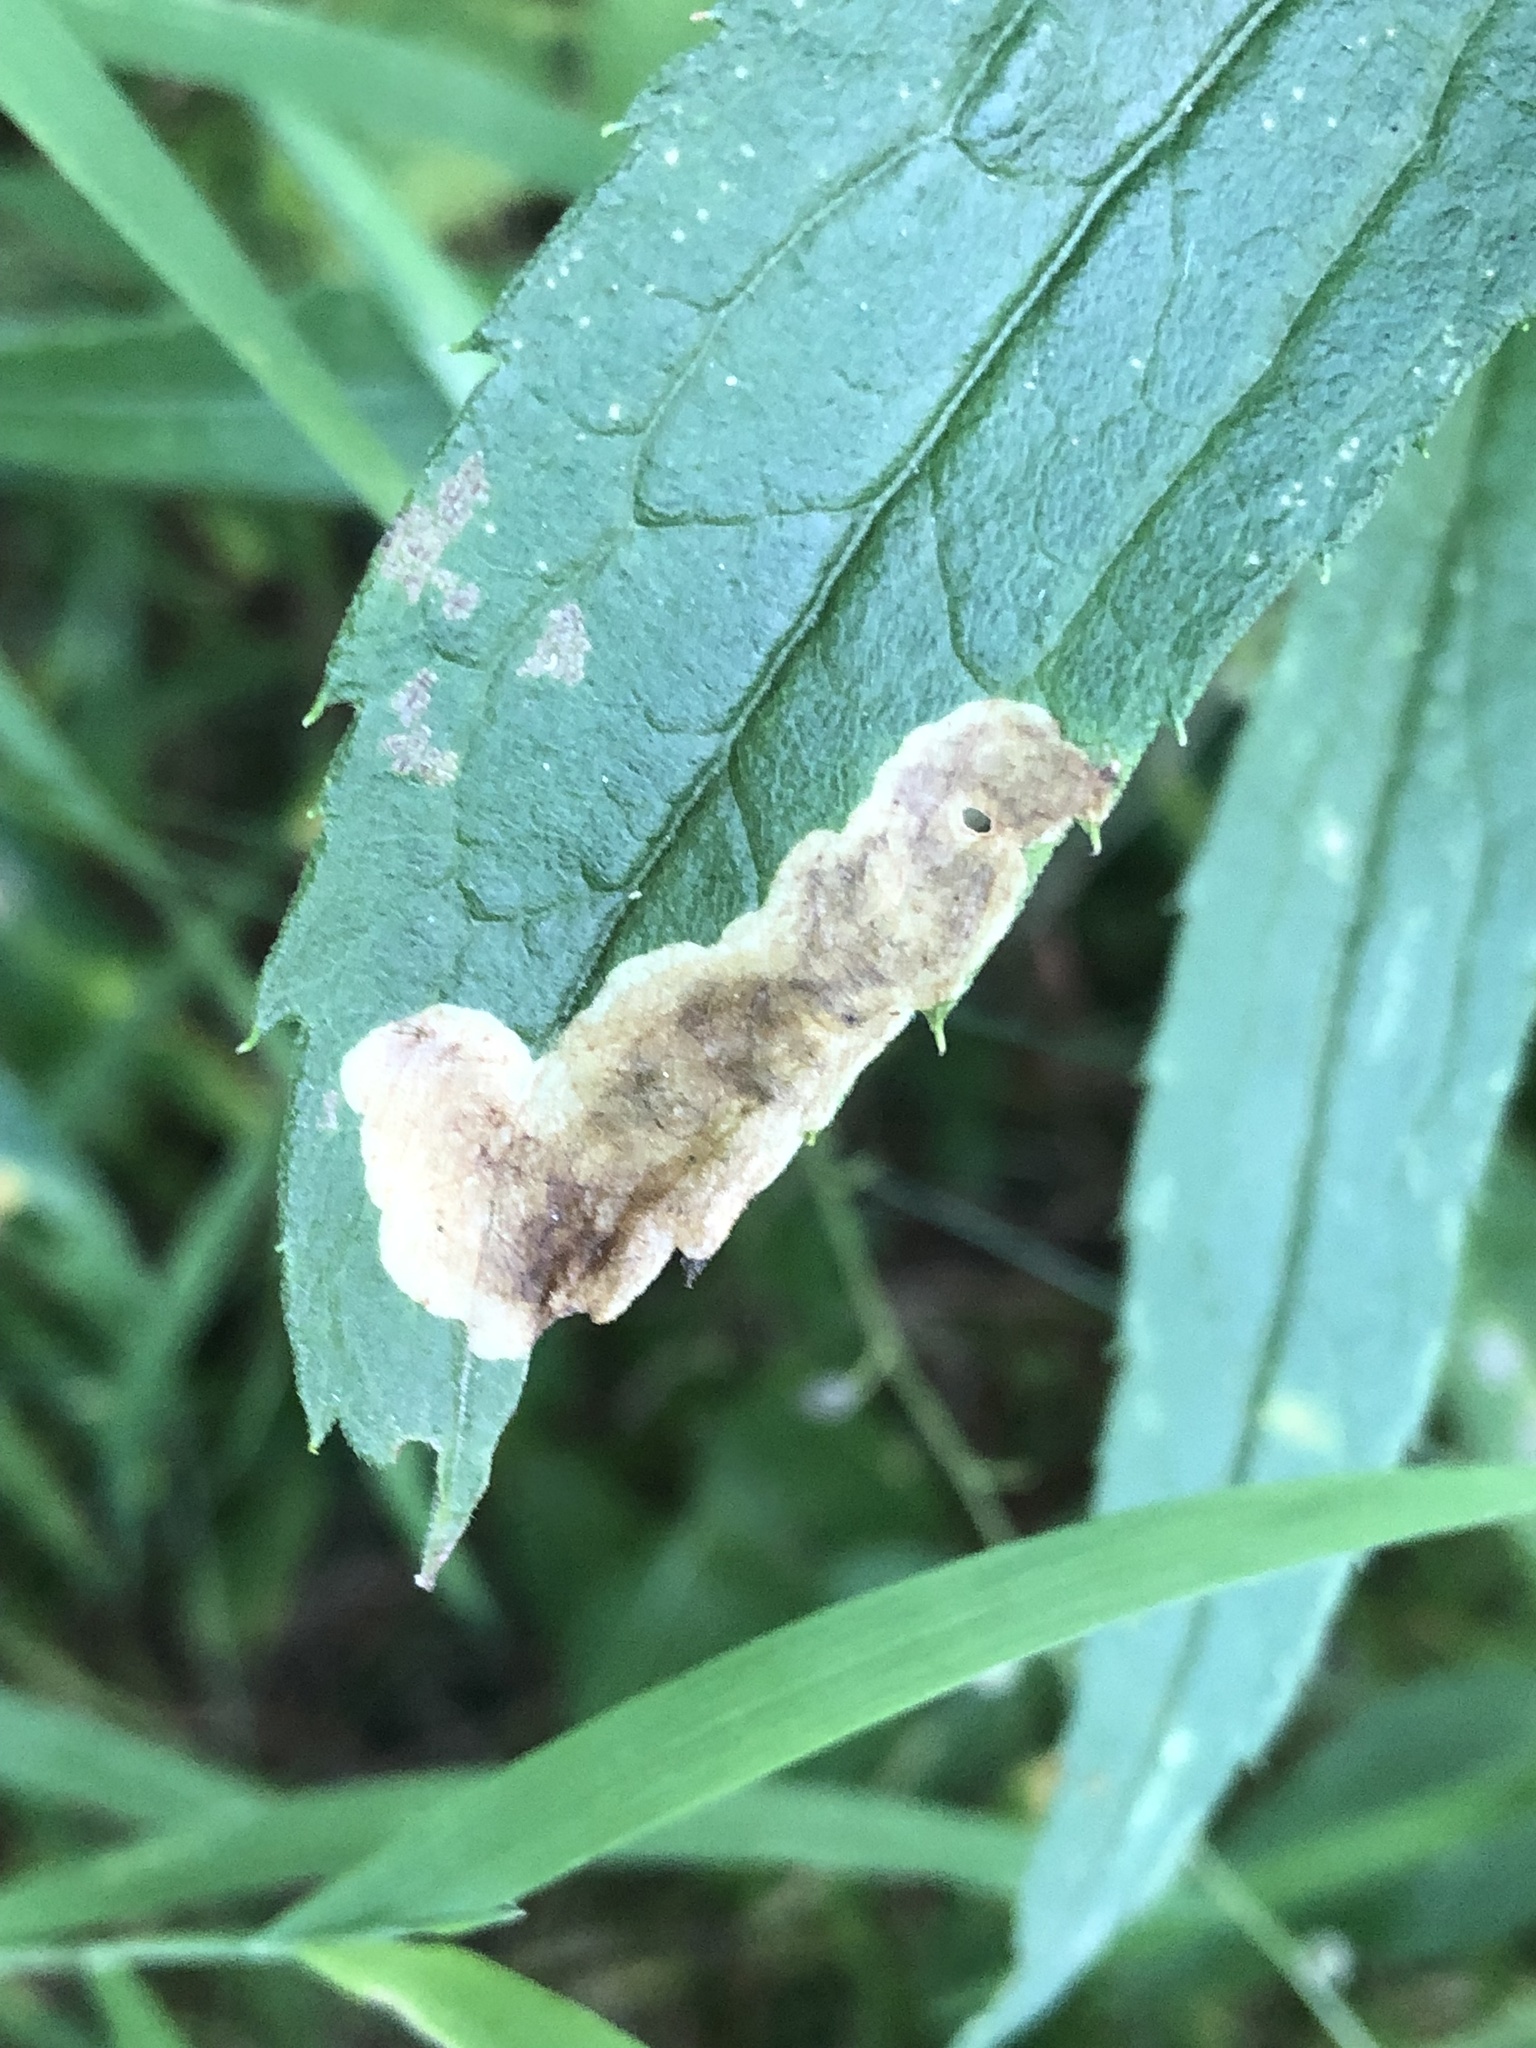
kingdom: Animalia
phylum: Arthropoda
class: Insecta
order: Diptera
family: Agromyzidae
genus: Nemorimyza
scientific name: Nemorimyza posticata
